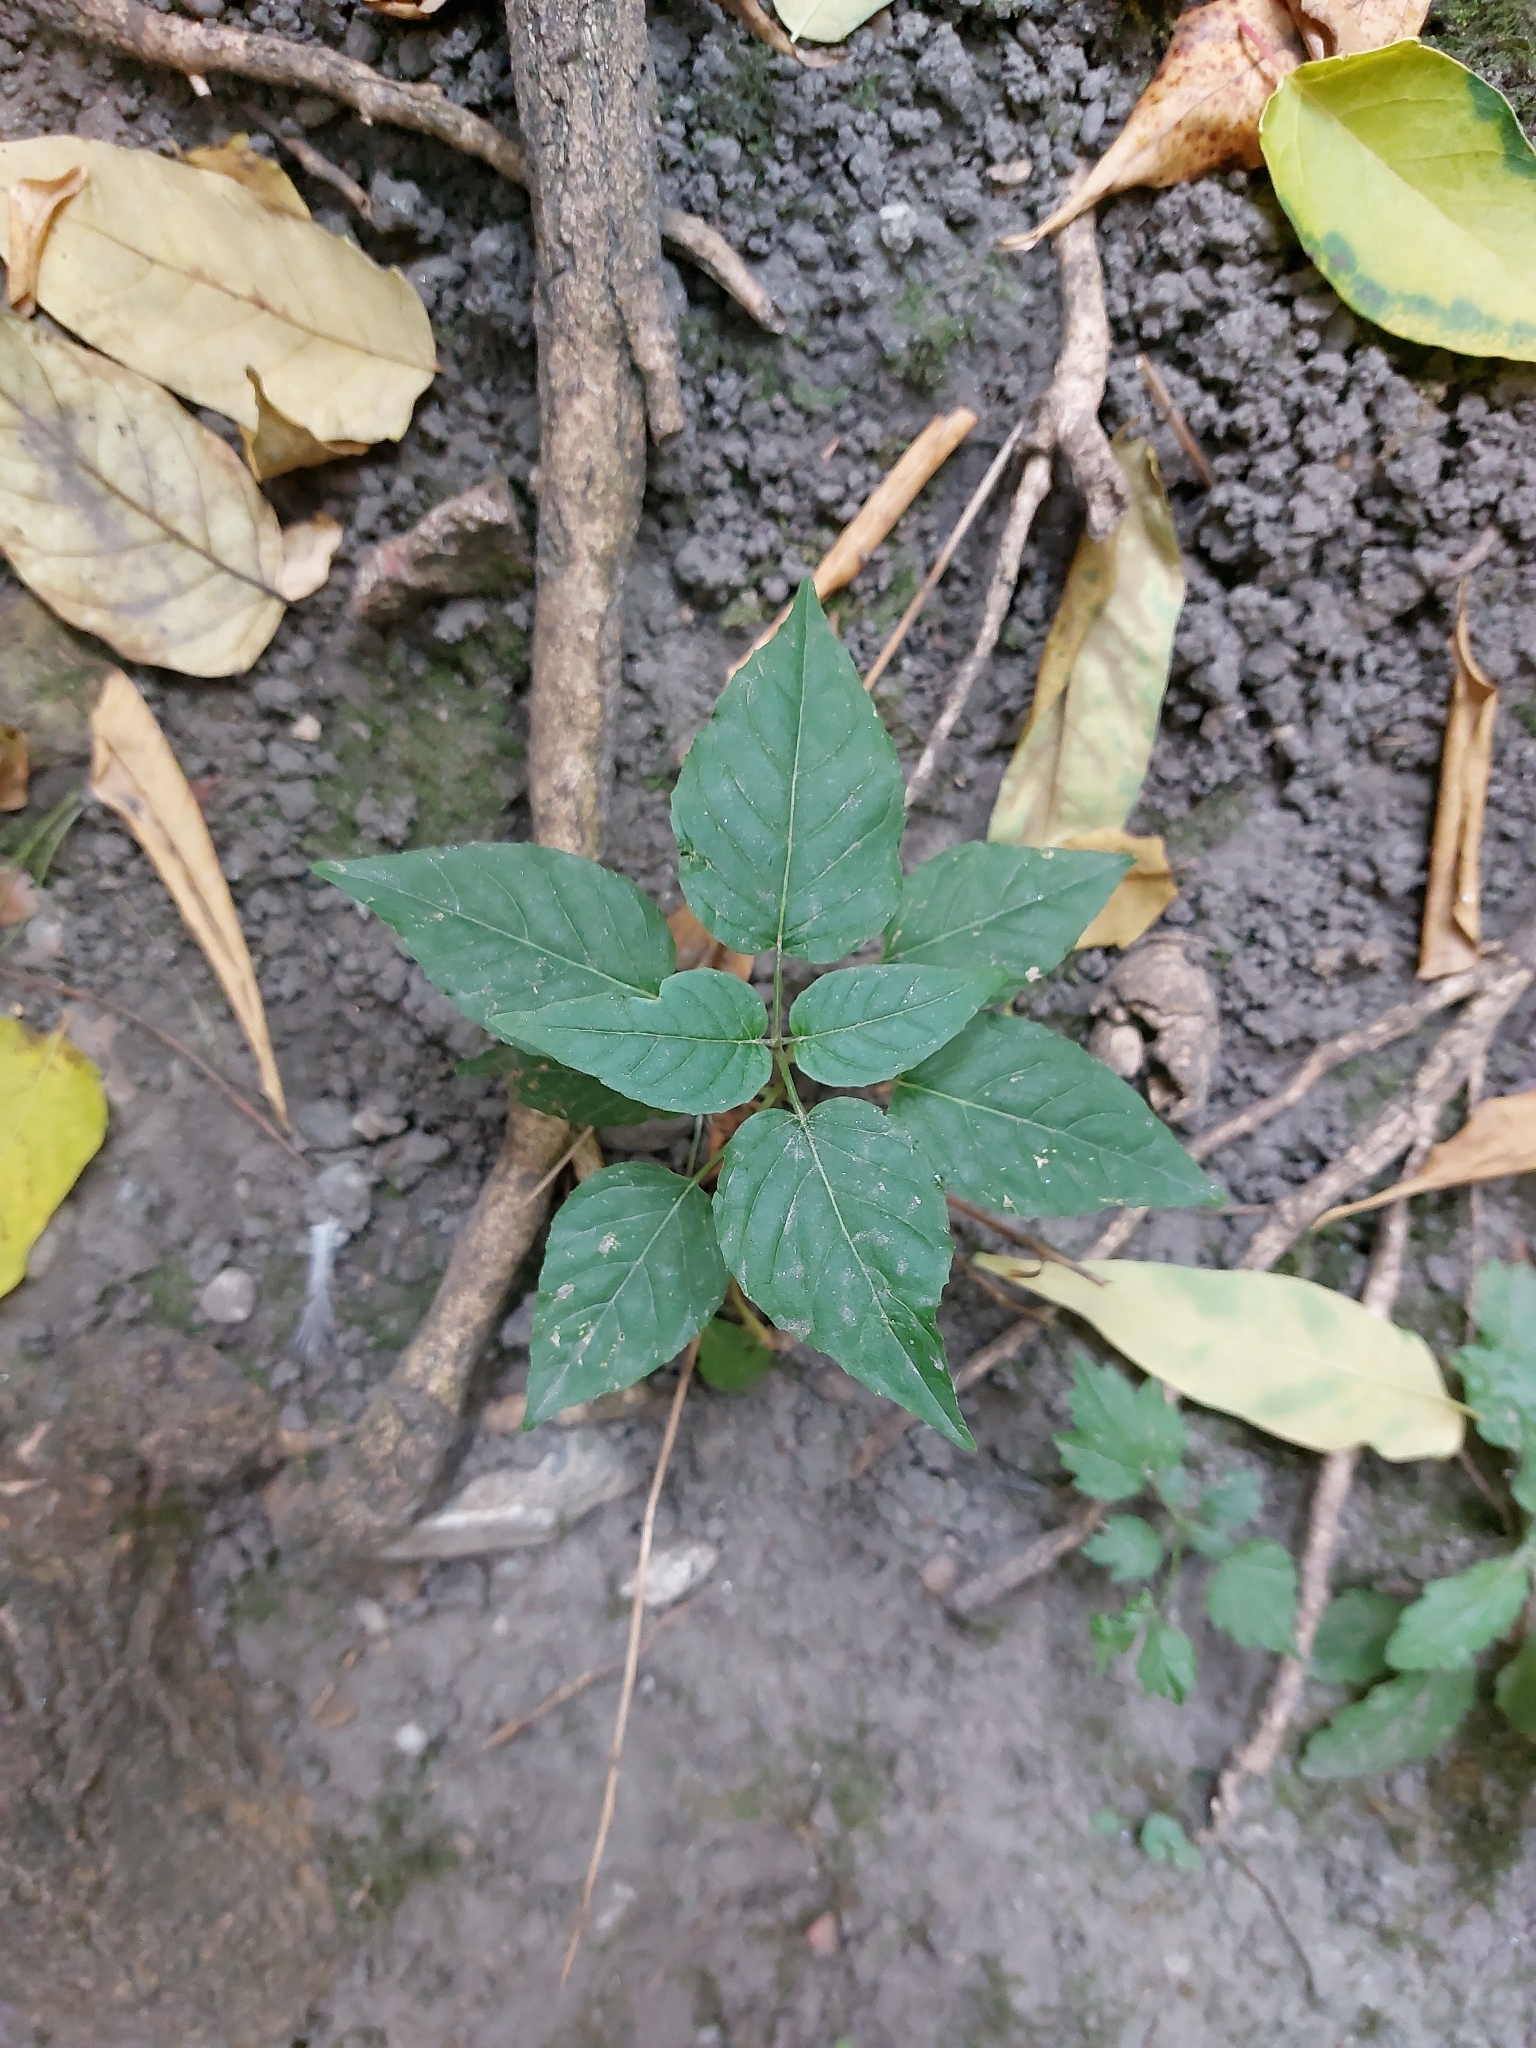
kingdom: Plantae
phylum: Tracheophyta
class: Magnoliopsida
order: Myrtales
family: Onagraceae
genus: Circaea
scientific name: Circaea lutetiana
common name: Enchanter's-nightshade
